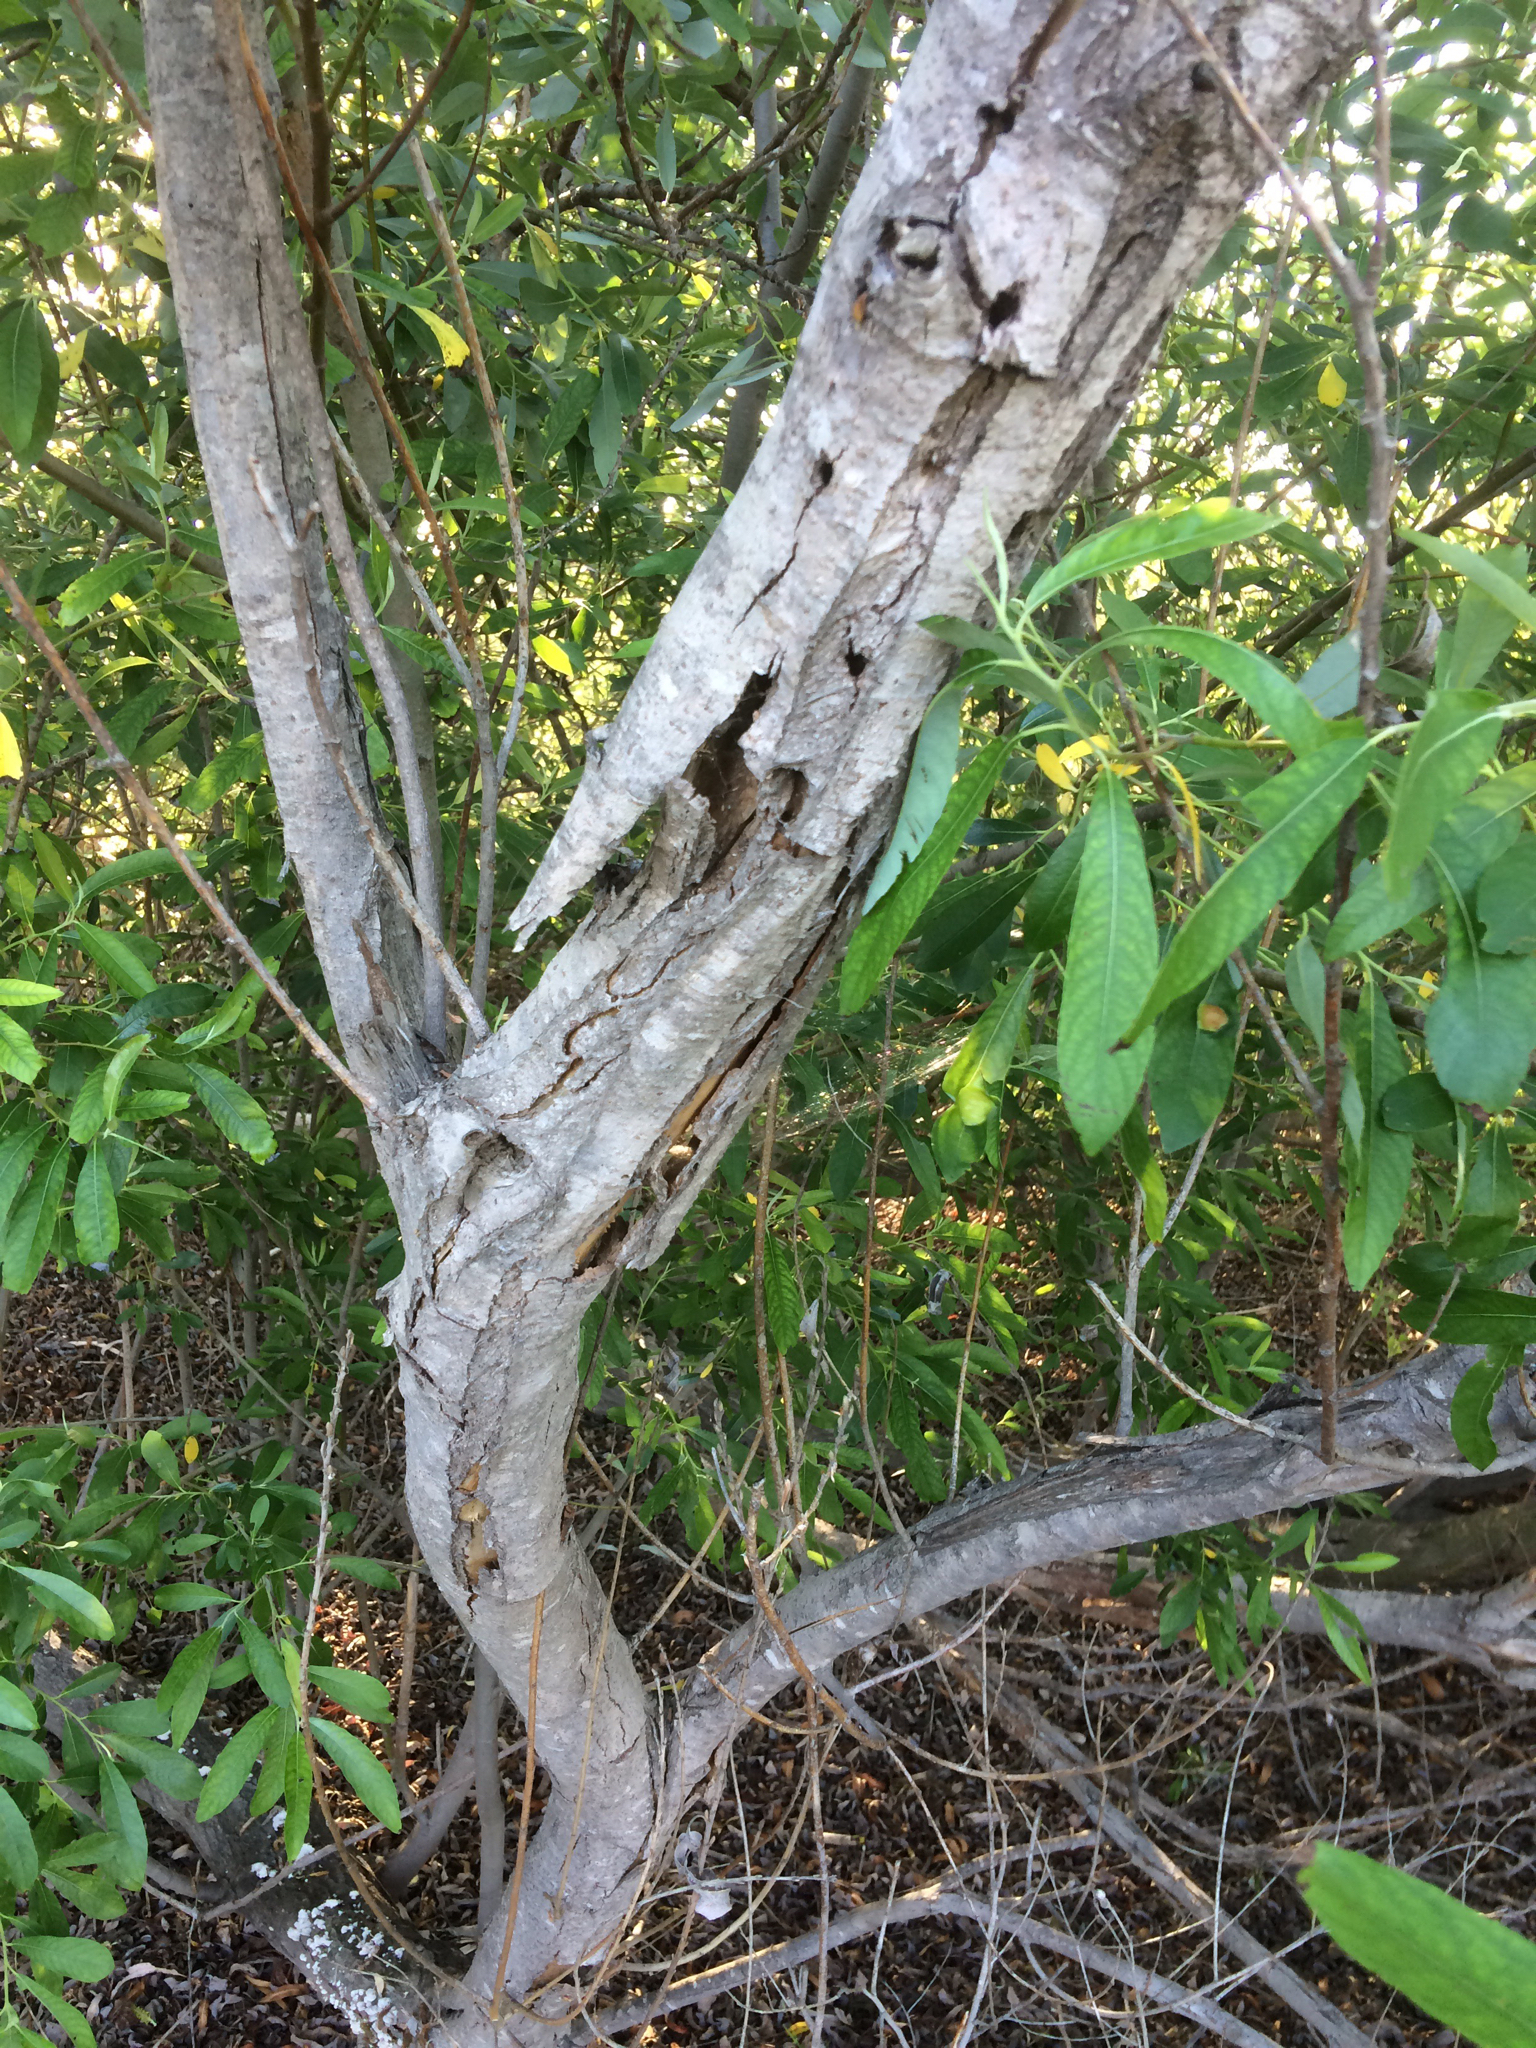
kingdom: Plantae
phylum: Tracheophyta
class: Magnoliopsida
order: Malpighiales
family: Salicaceae
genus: Salix
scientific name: Salix lasiolepis
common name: Arroyo willow
